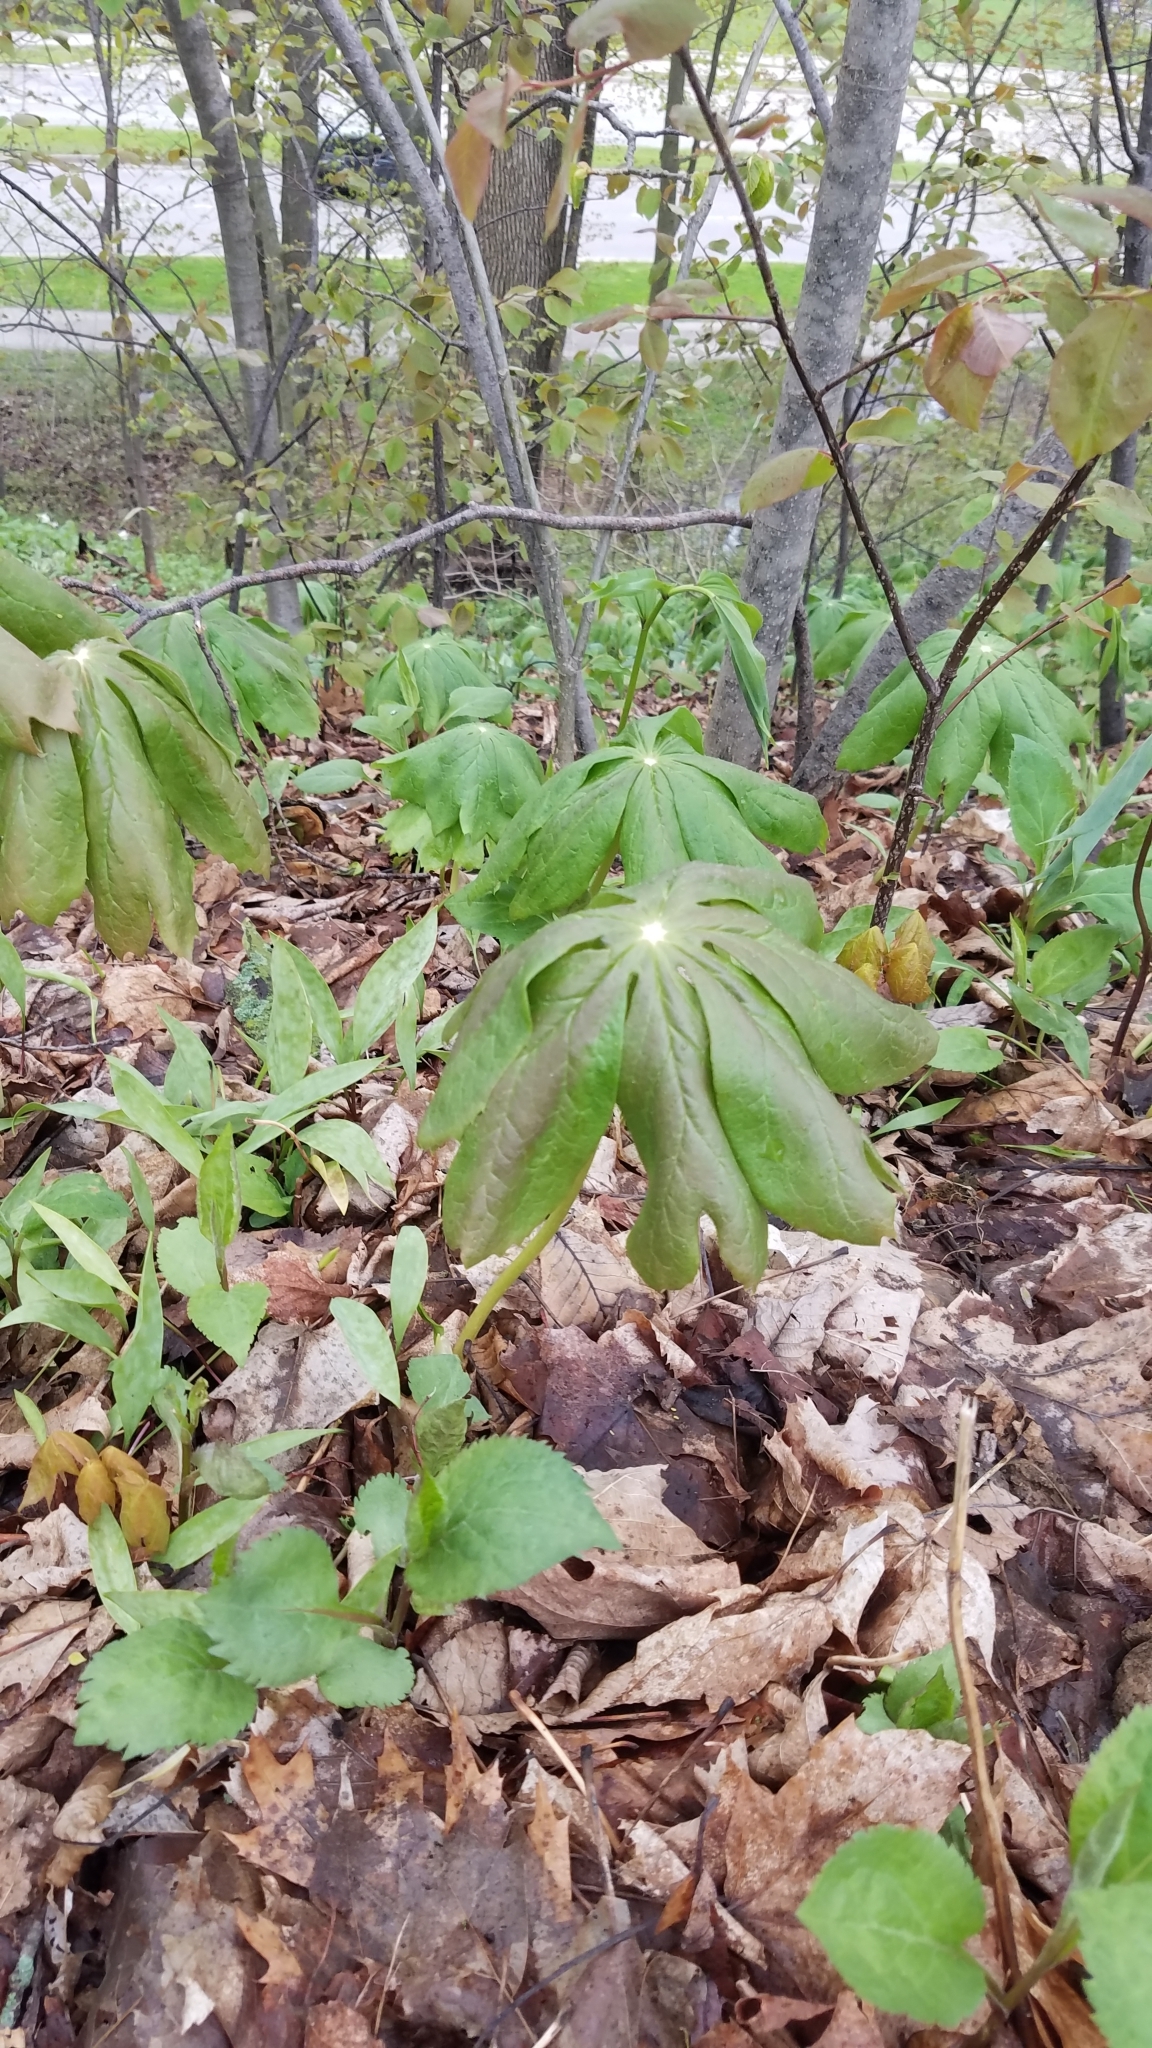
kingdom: Plantae
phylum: Tracheophyta
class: Magnoliopsida
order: Ranunculales
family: Berberidaceae
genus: Podophyllum
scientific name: Podophyllum peltatum
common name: Wild mandrake
